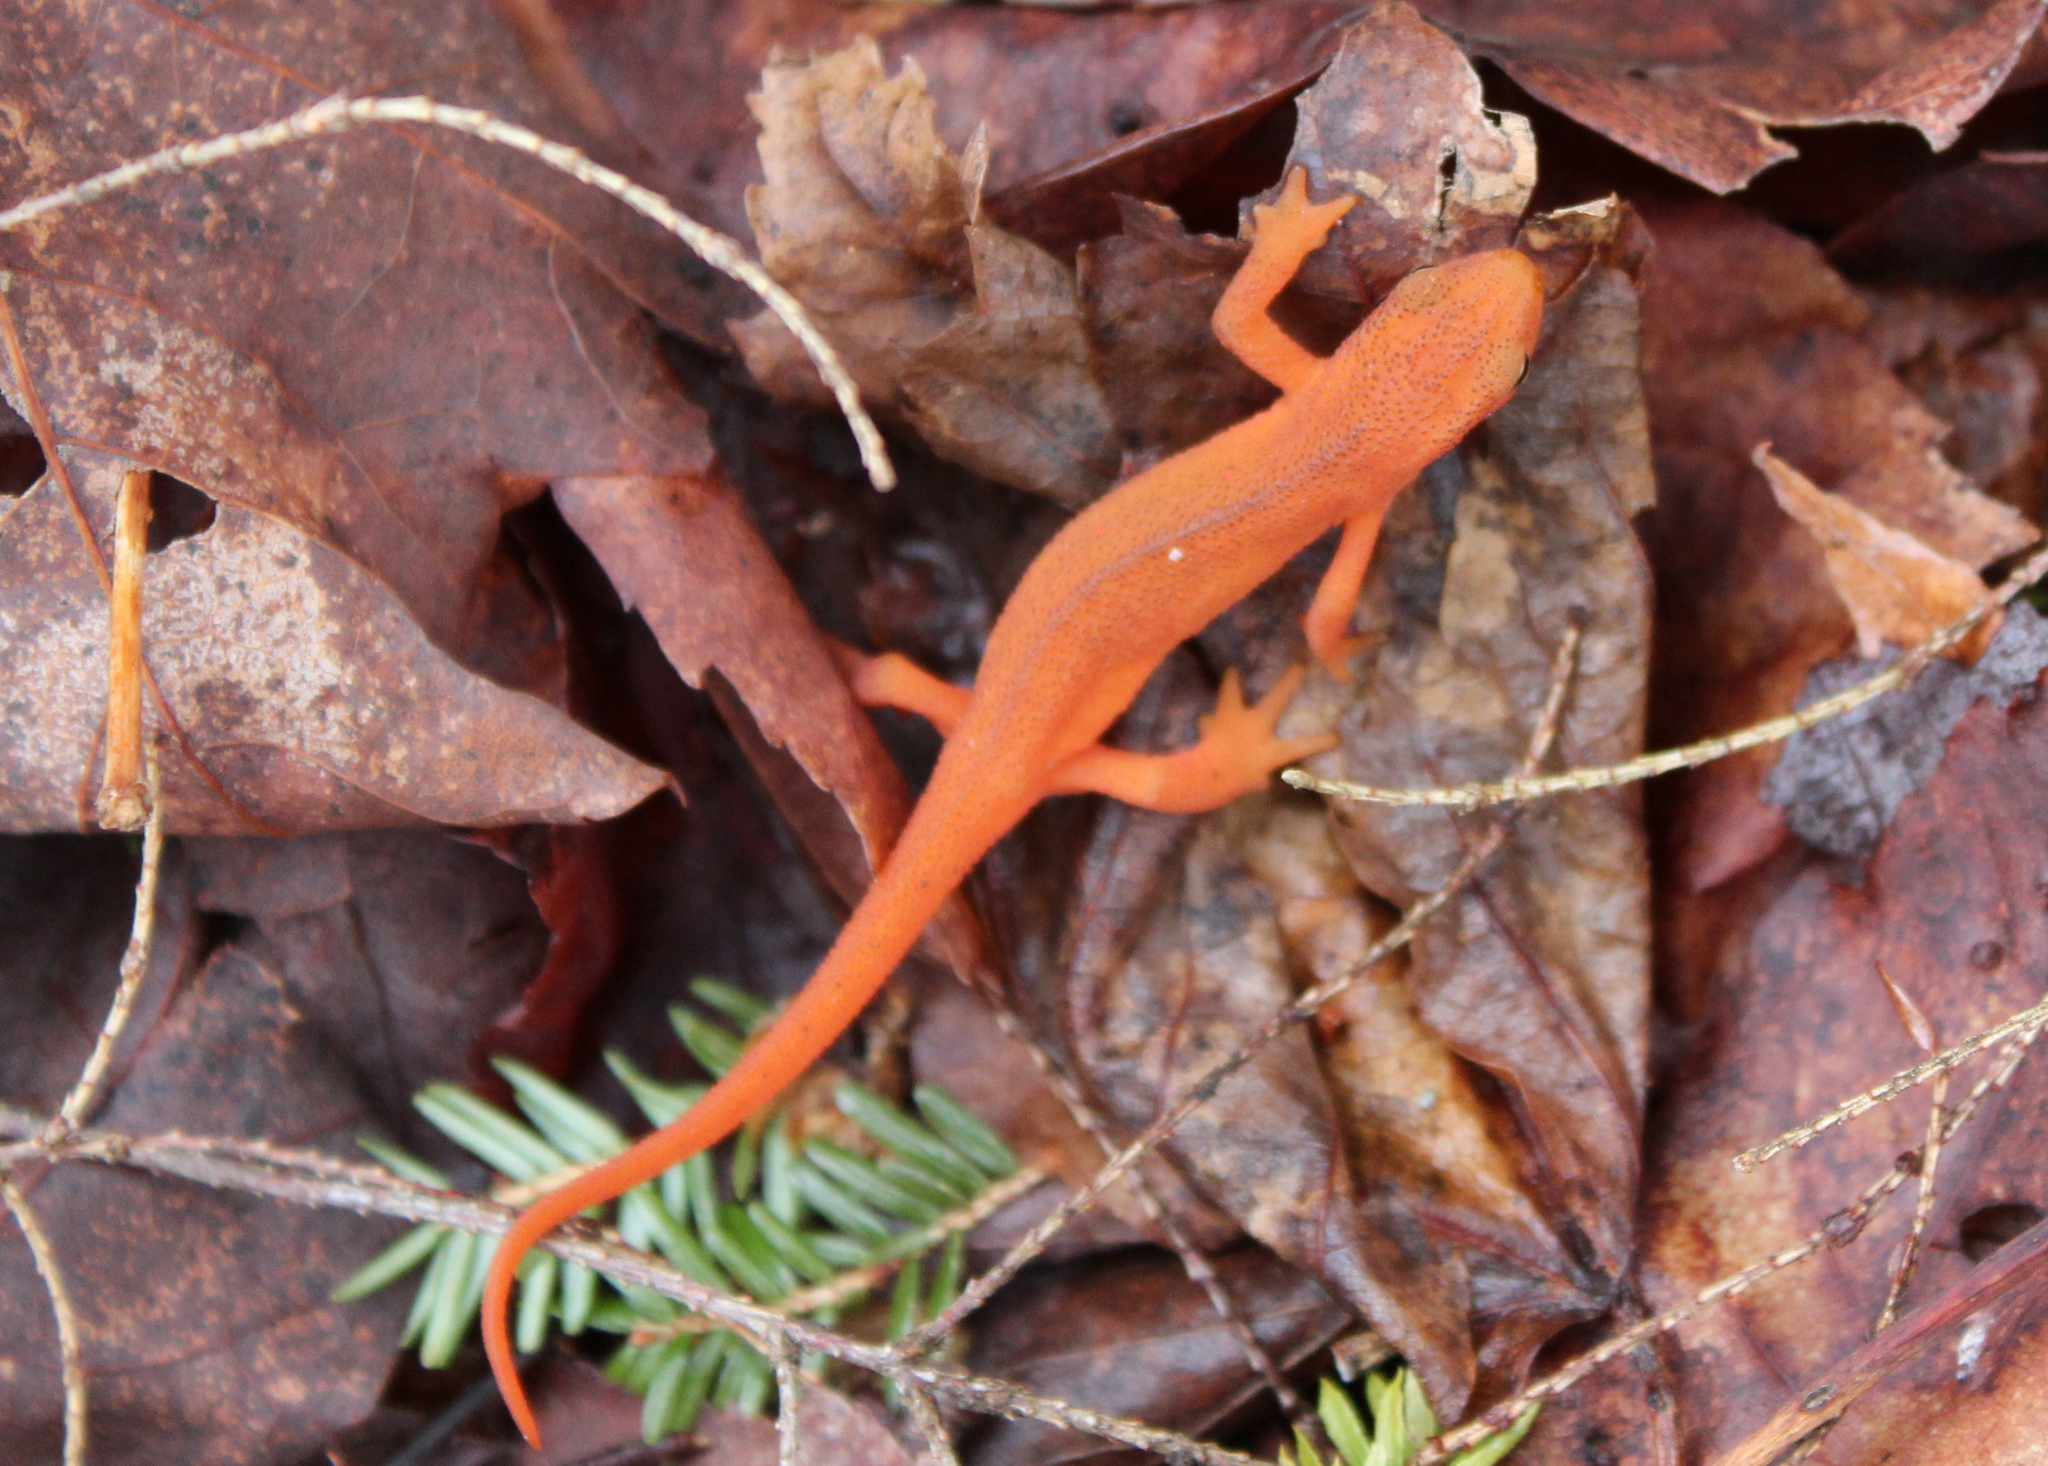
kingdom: Animalia
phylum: Chordata
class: Amphibia
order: Caudata
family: Salamandridae
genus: Notophthalmus
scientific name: Notophthalmus viridescens
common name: Eastern newt
